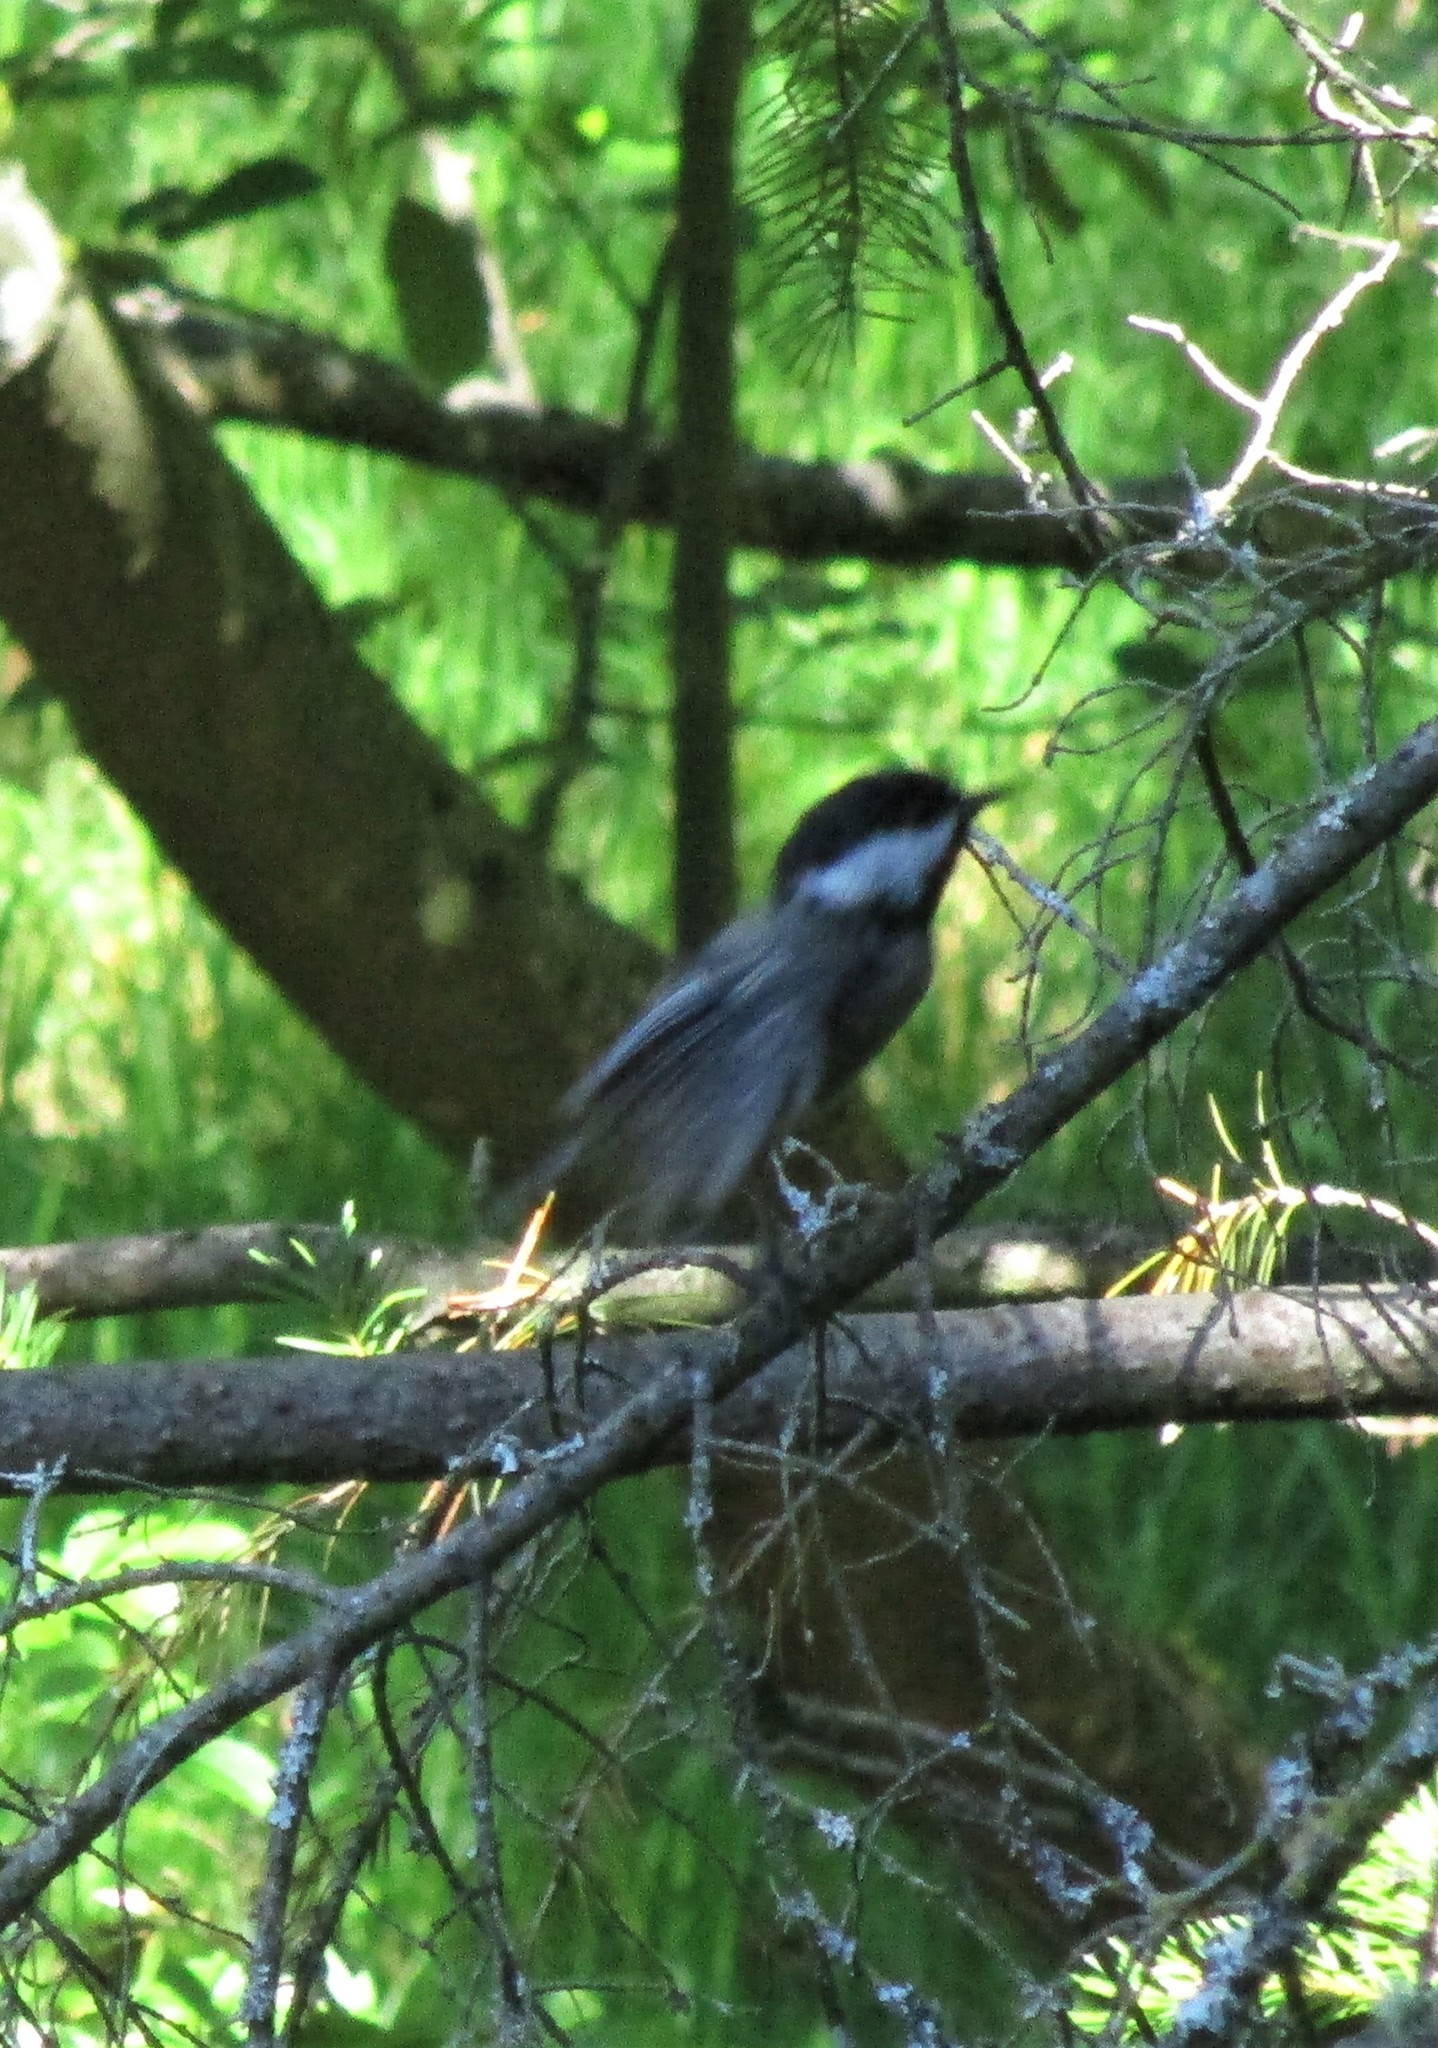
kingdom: Animalia
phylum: Chordata
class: Aves
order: Passeriformes
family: Paridae
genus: Poecile
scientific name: Poecile atricapillus
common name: Black-capped chickadee
